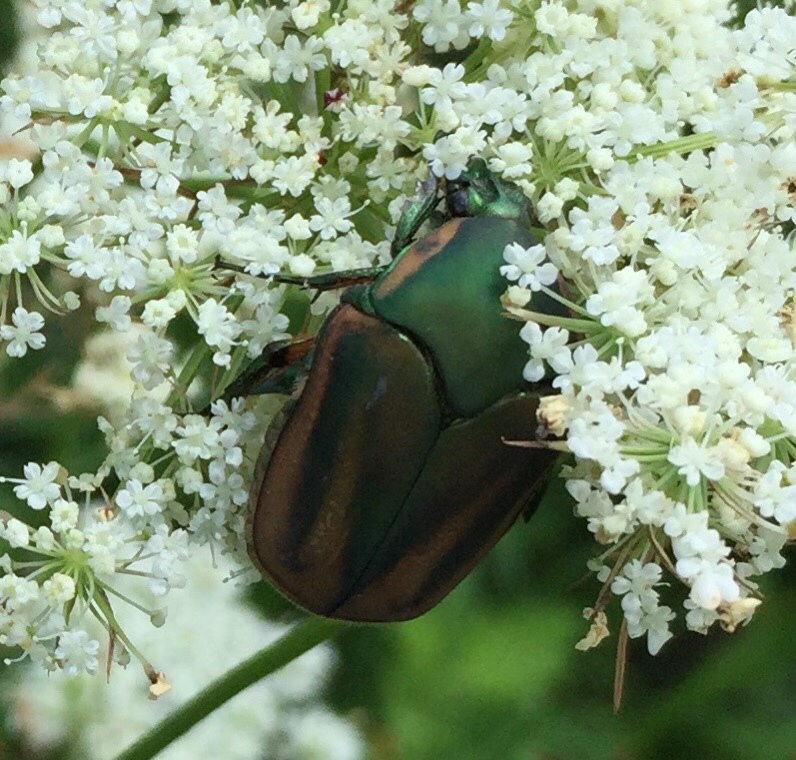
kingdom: Animalia
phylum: Arthropoda
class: Insecta
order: Coleoptera
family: Scarabaeidae
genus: Cotinis
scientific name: Cotinis nitida
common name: Common green june beetle
